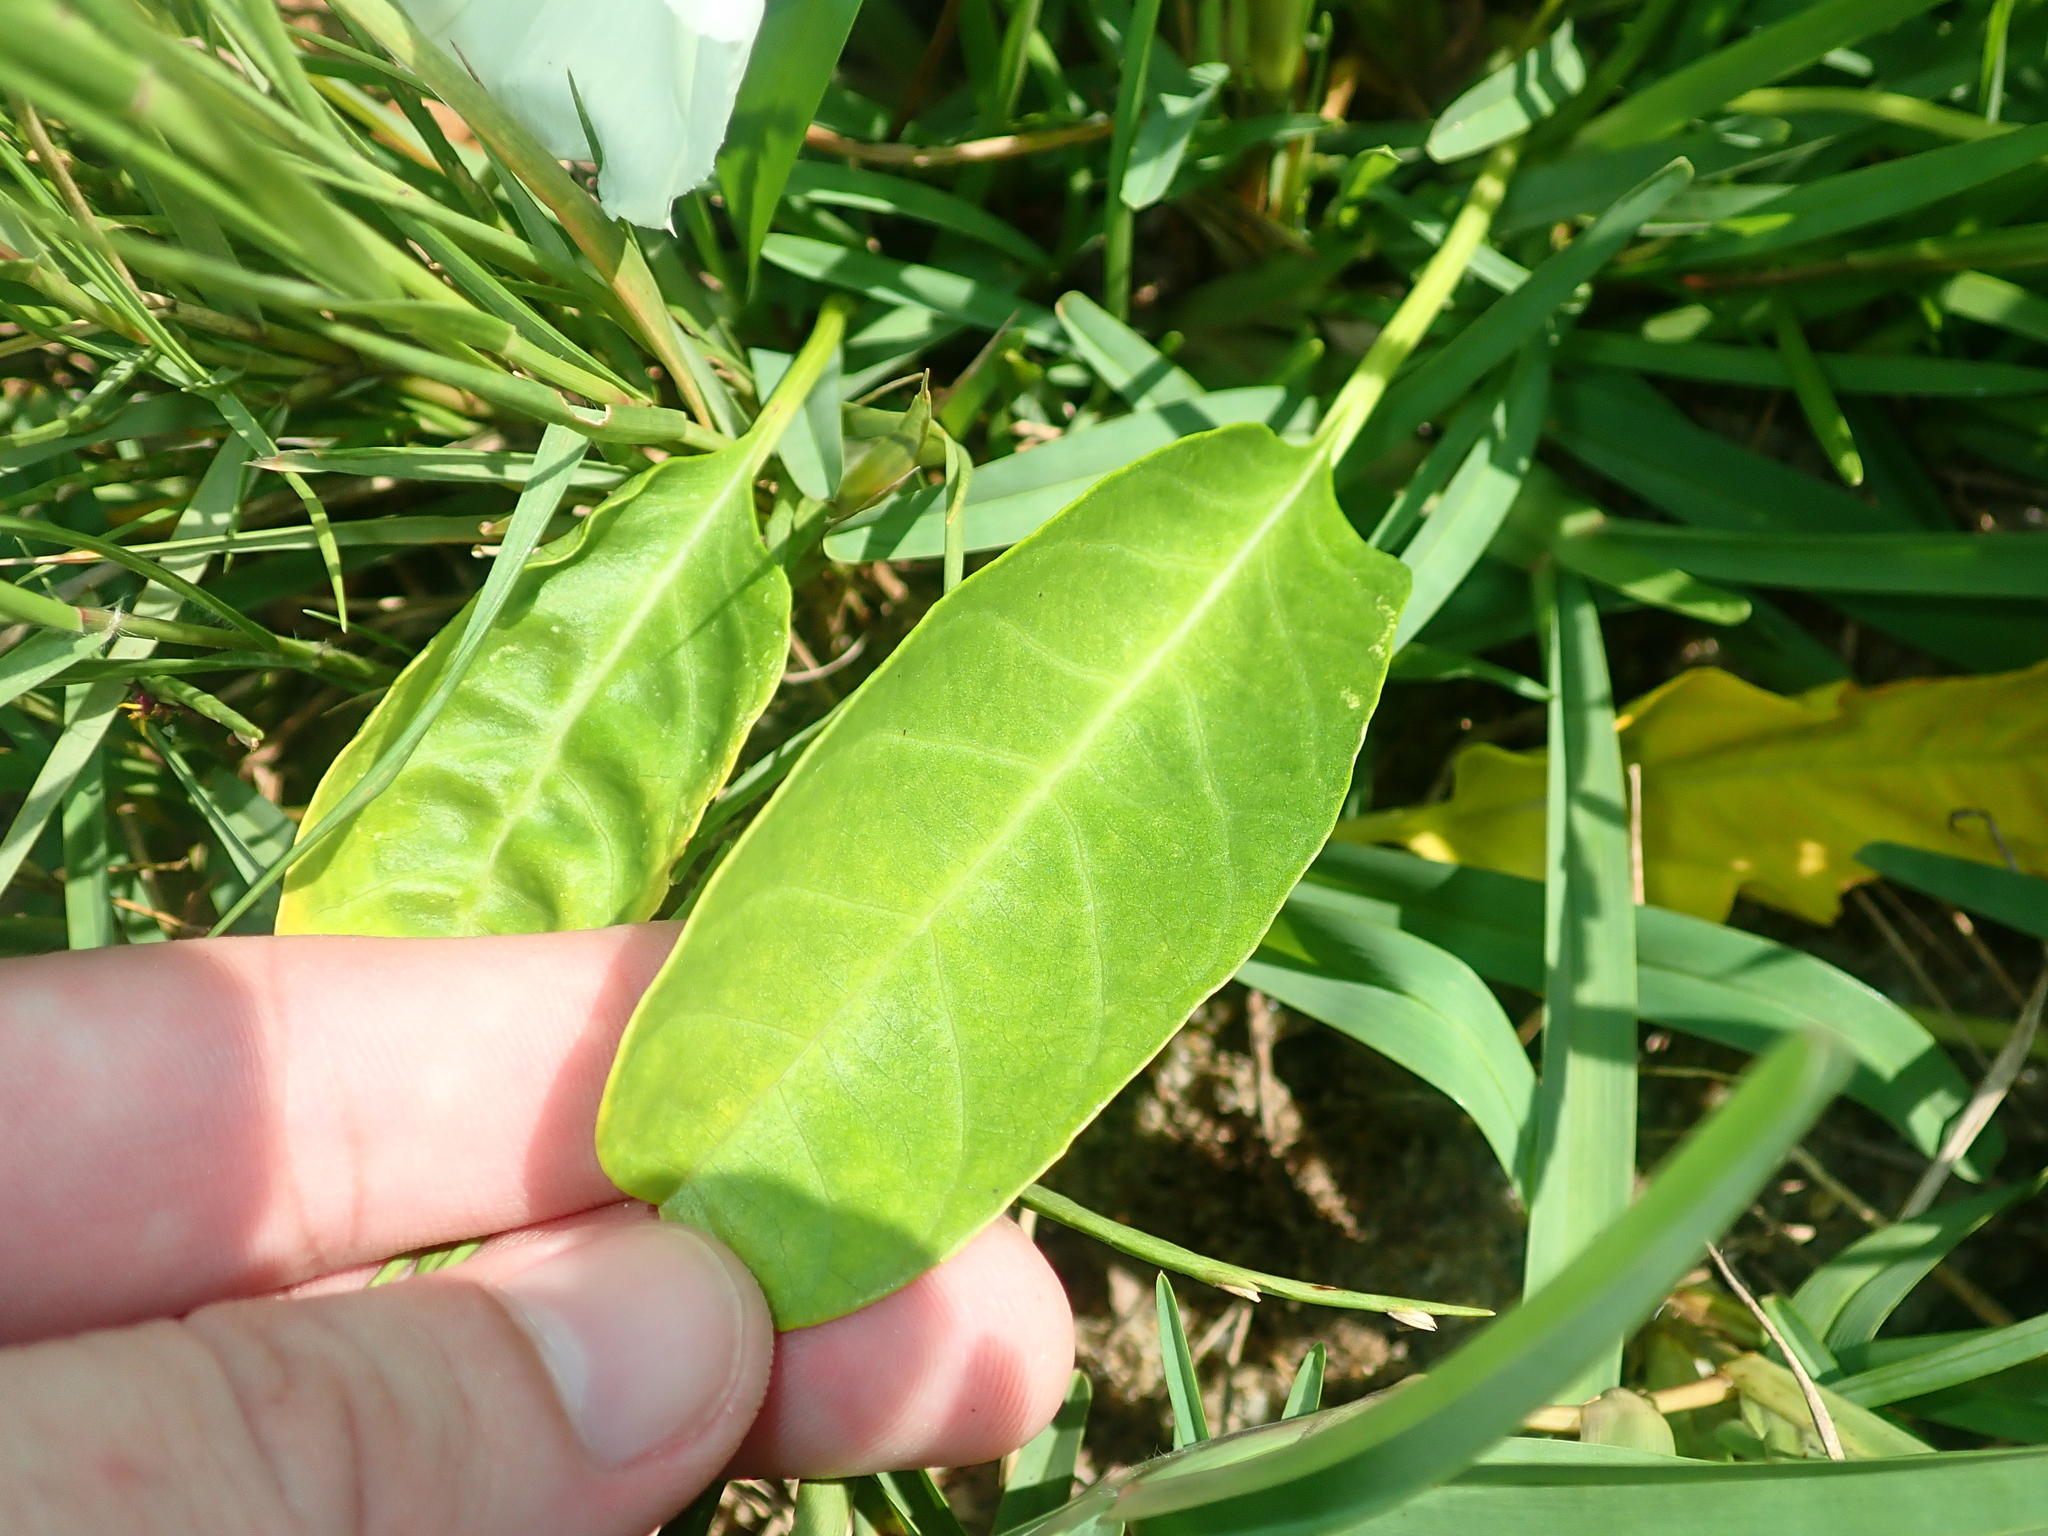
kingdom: Plantae
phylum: Tracheophyta
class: Magnoliopsida
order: Solanales
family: Convolvulaceae
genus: Ipomoea
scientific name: Ipomoea imperati
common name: Fiddle-leaf morning-glory
